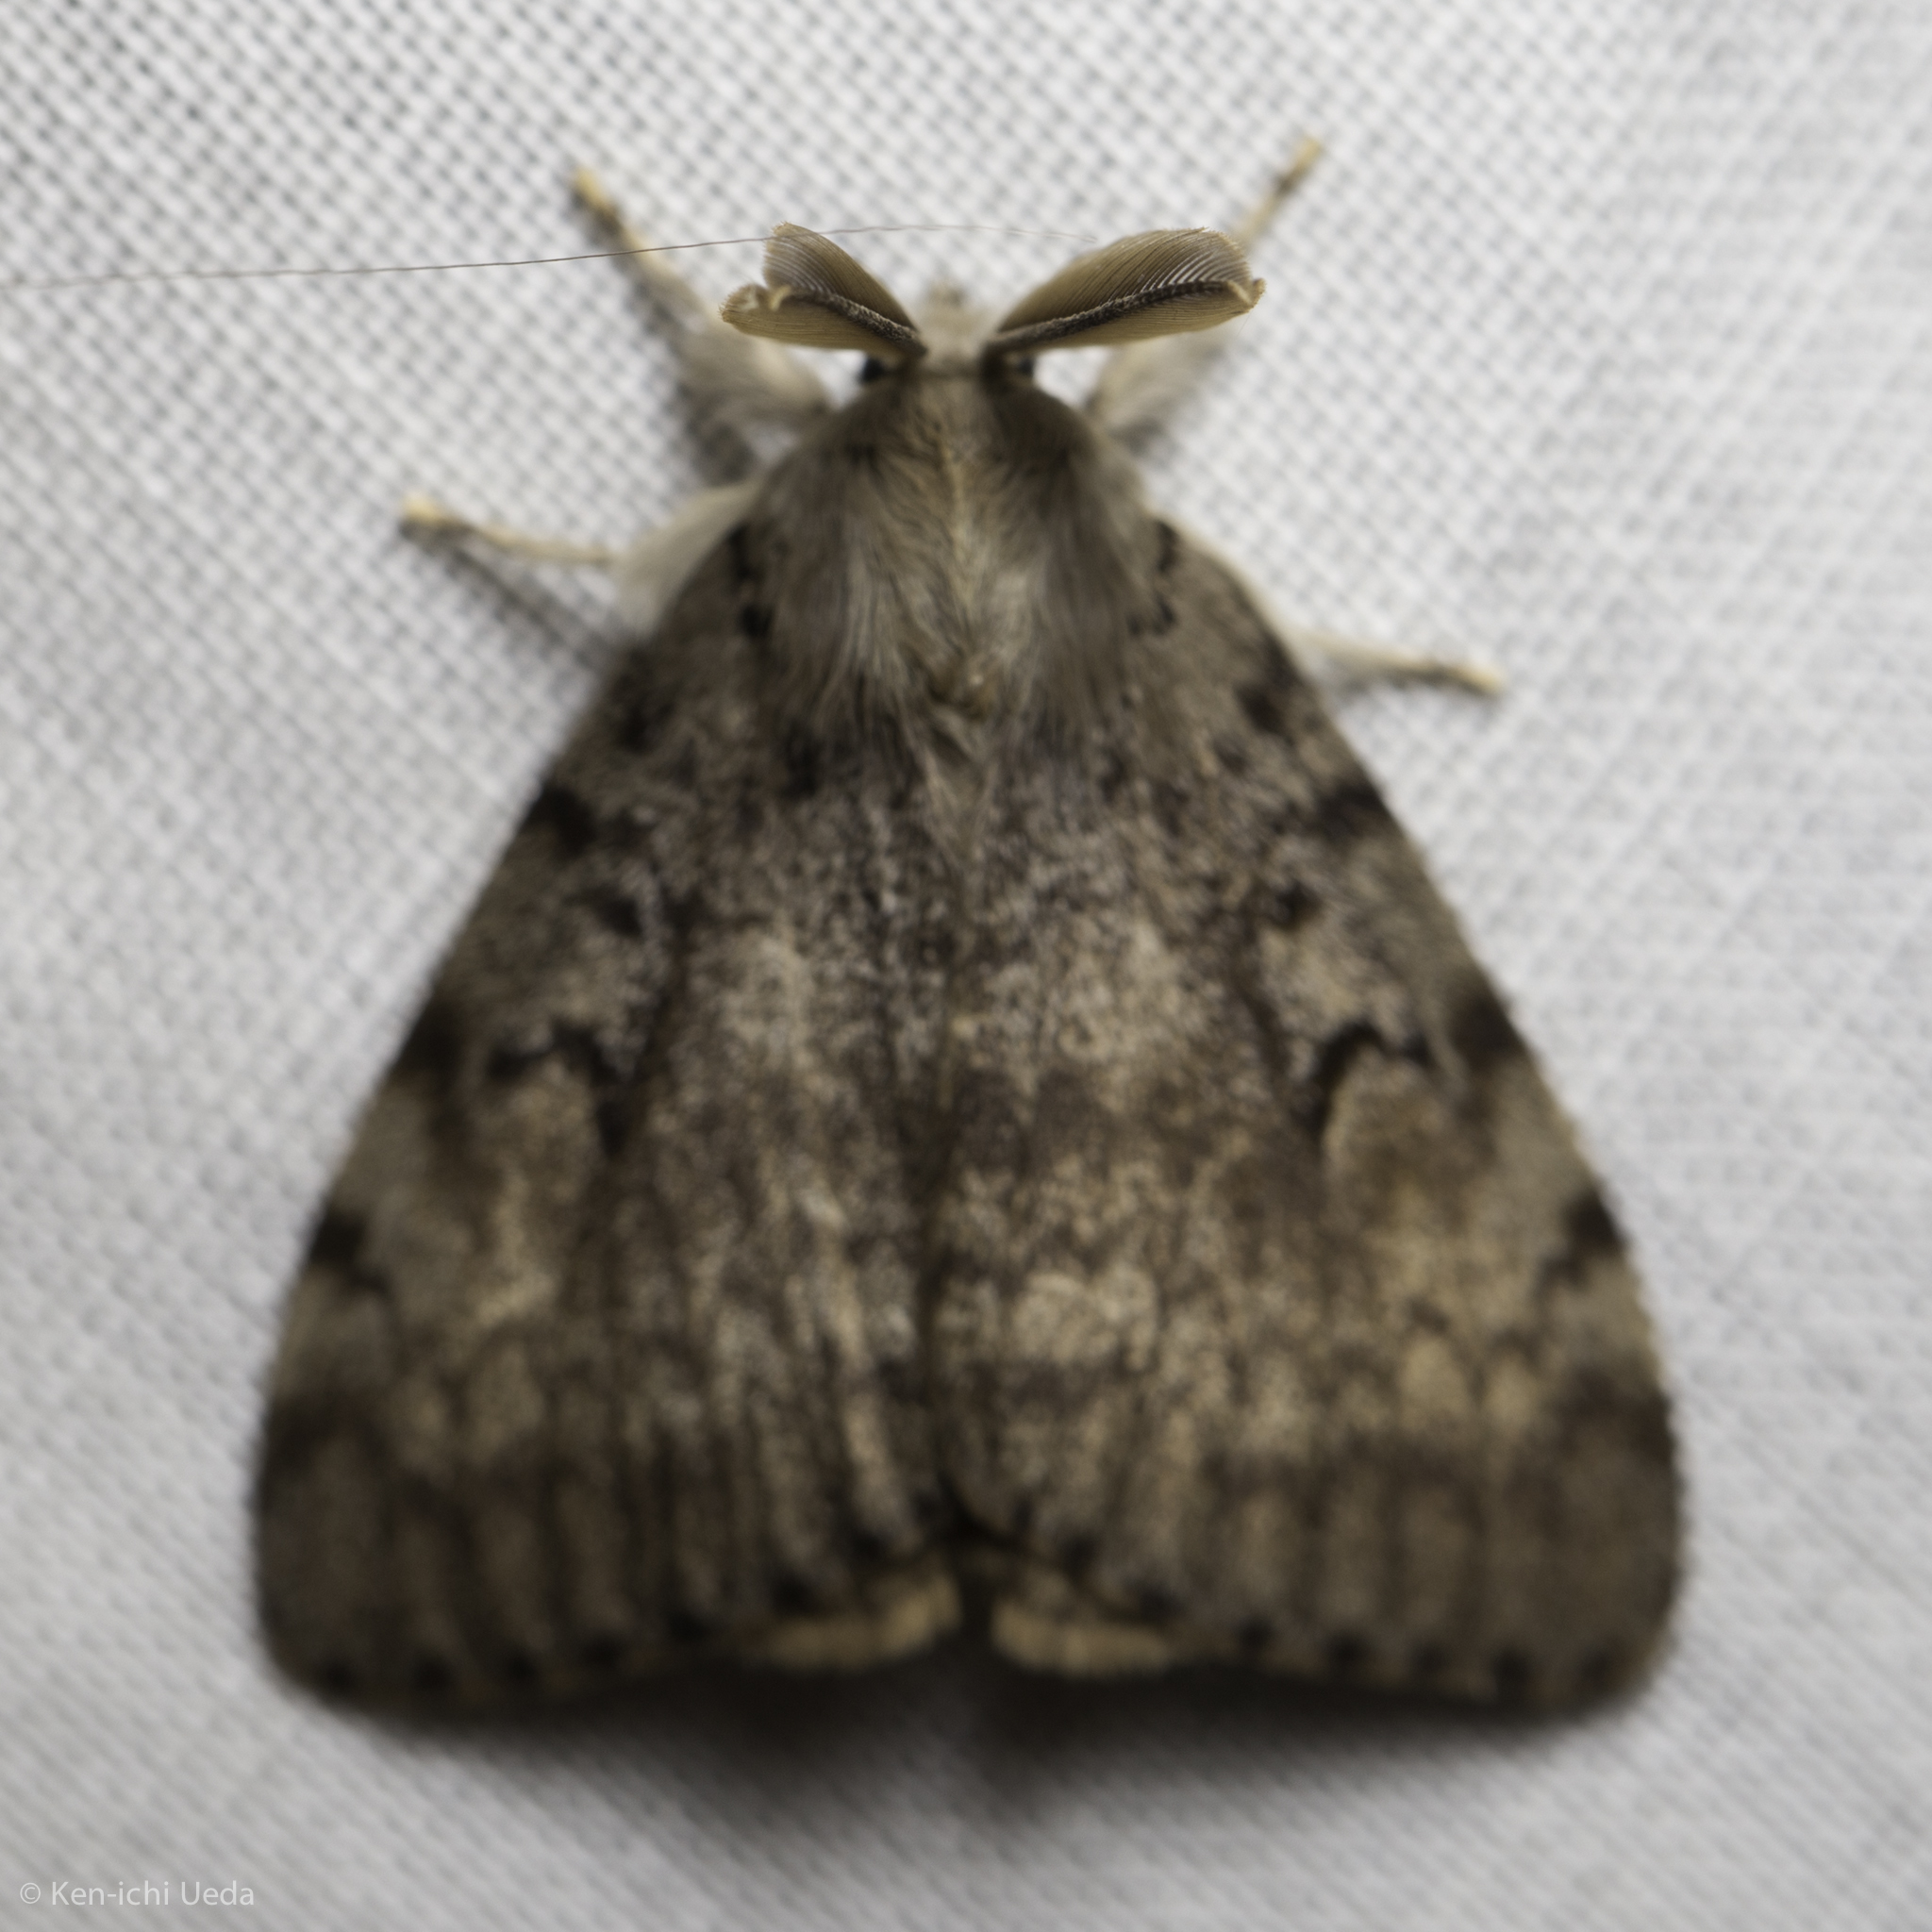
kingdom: Animalia
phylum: Arthropoda
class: Insecta
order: Lepidoptera
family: Erebidae
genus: Lymantria
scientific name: Lymantria dispar
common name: Gypsy moth
